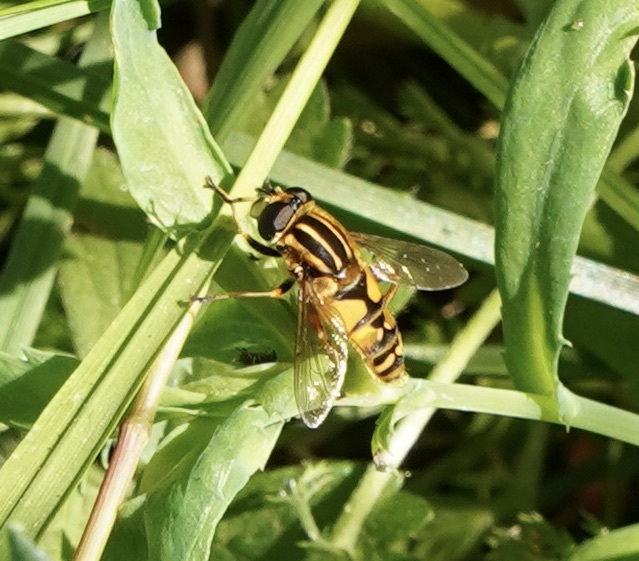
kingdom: Animalia
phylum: Arthropoda
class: Insecta
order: Diptera
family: Syrphidae
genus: Helophilus
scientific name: Helophilus pendulus
